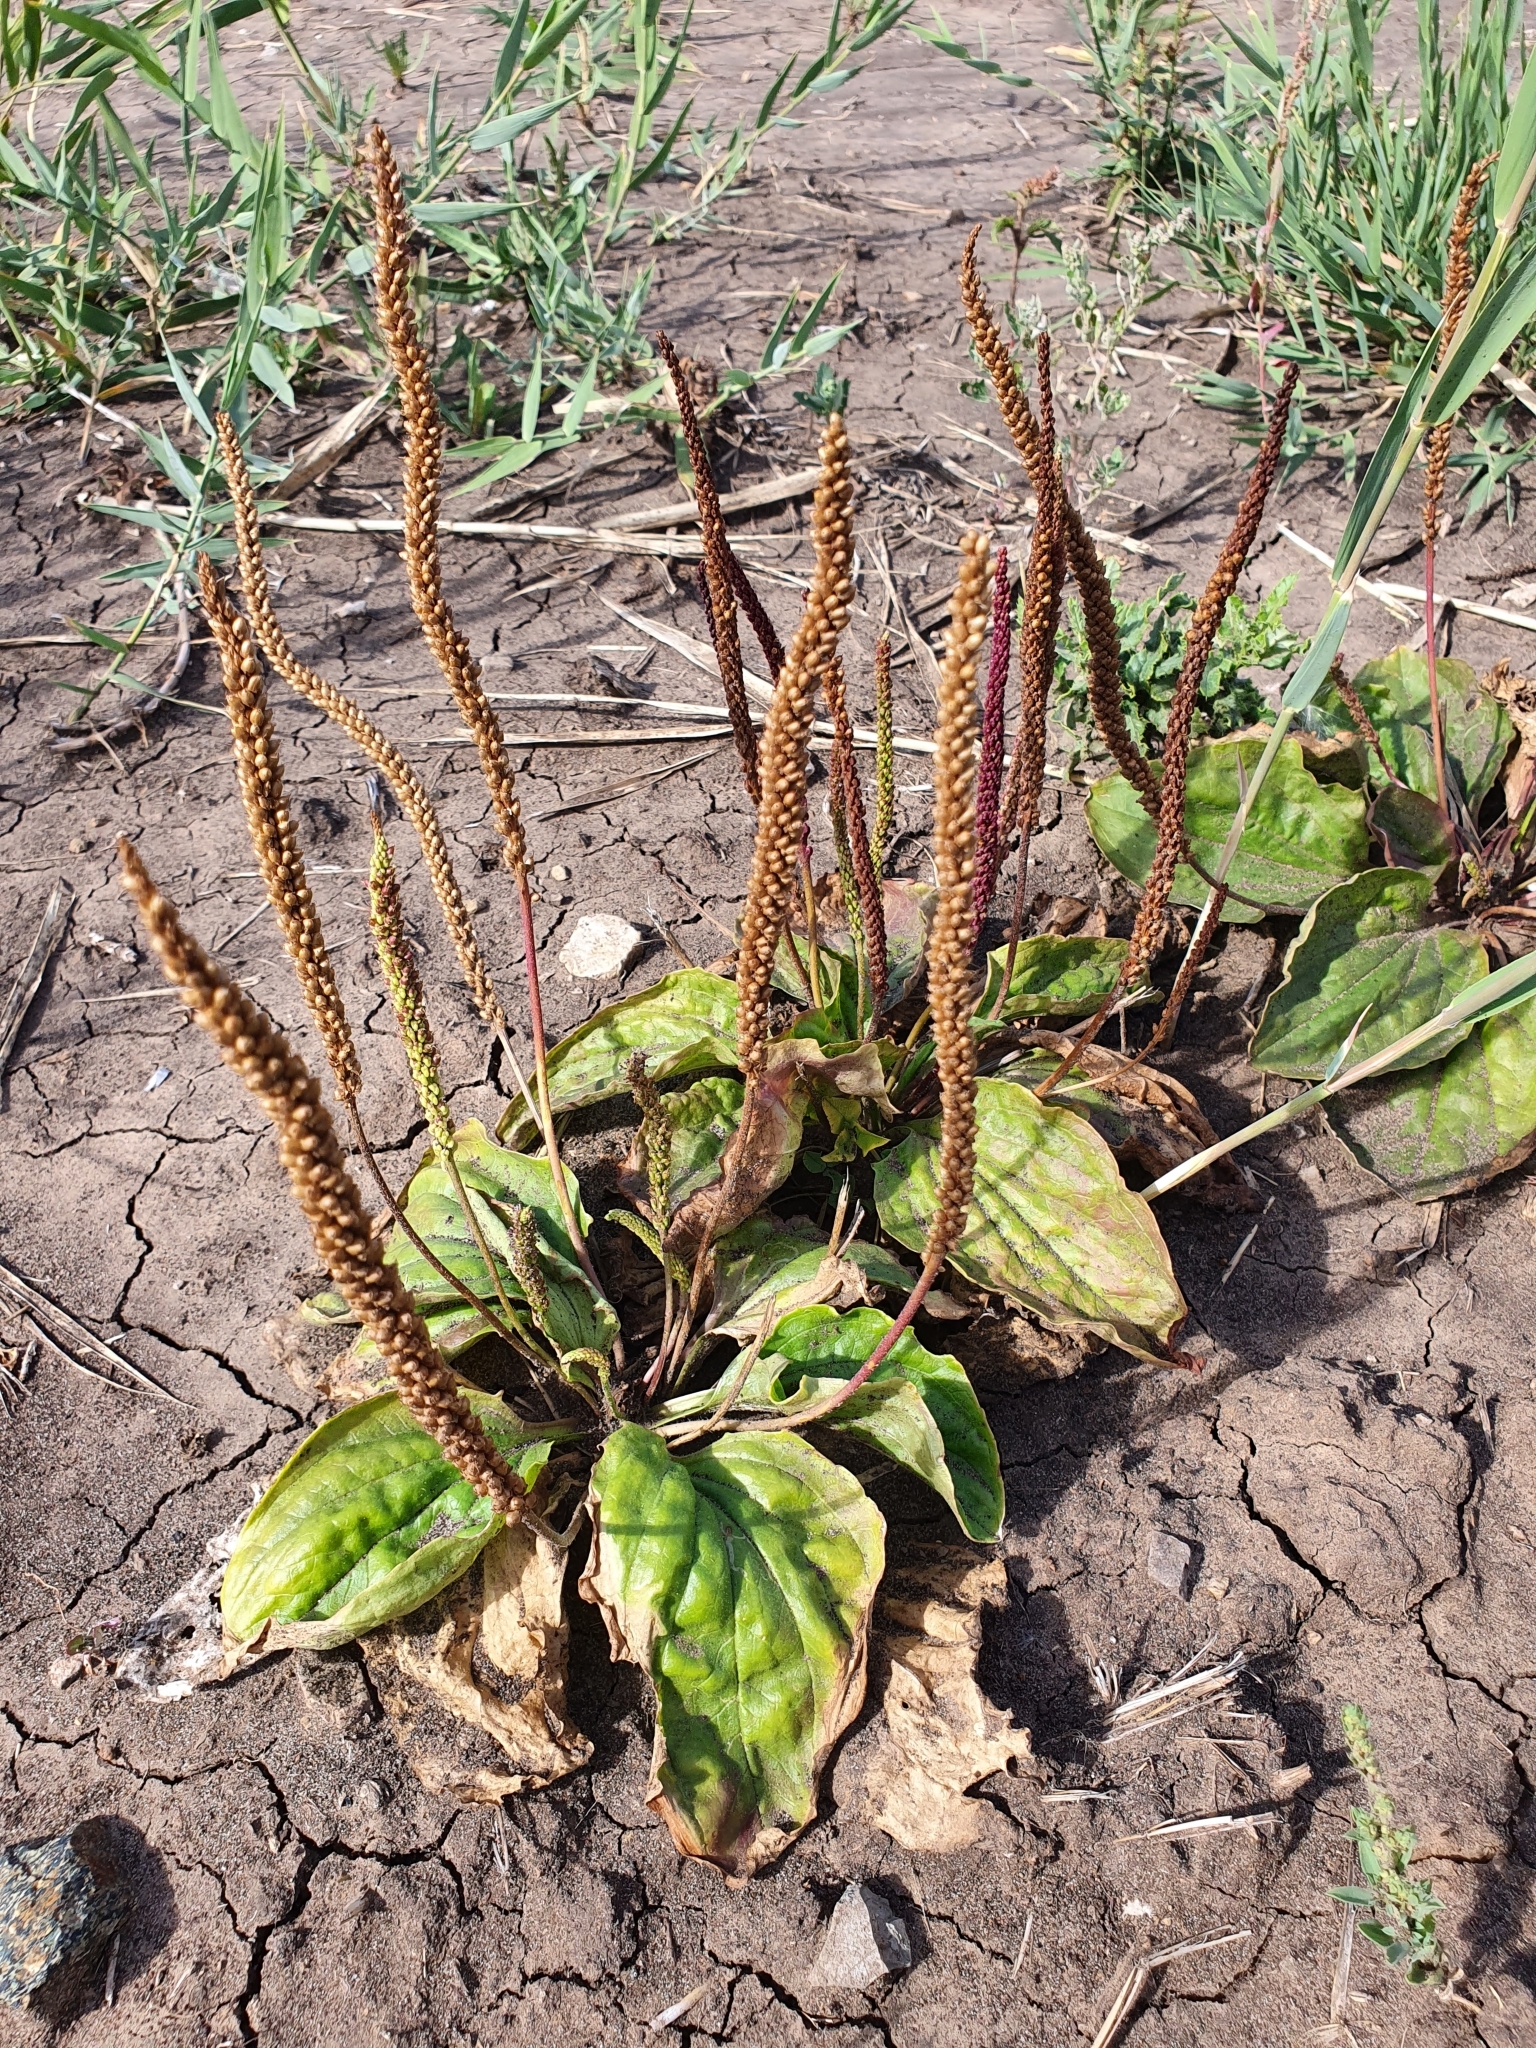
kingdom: Plantae
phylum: Tracheophyta
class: Magnoliopsida
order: Lamiales
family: Plantaginaceae
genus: Plantago
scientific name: Plantago uliginosa
